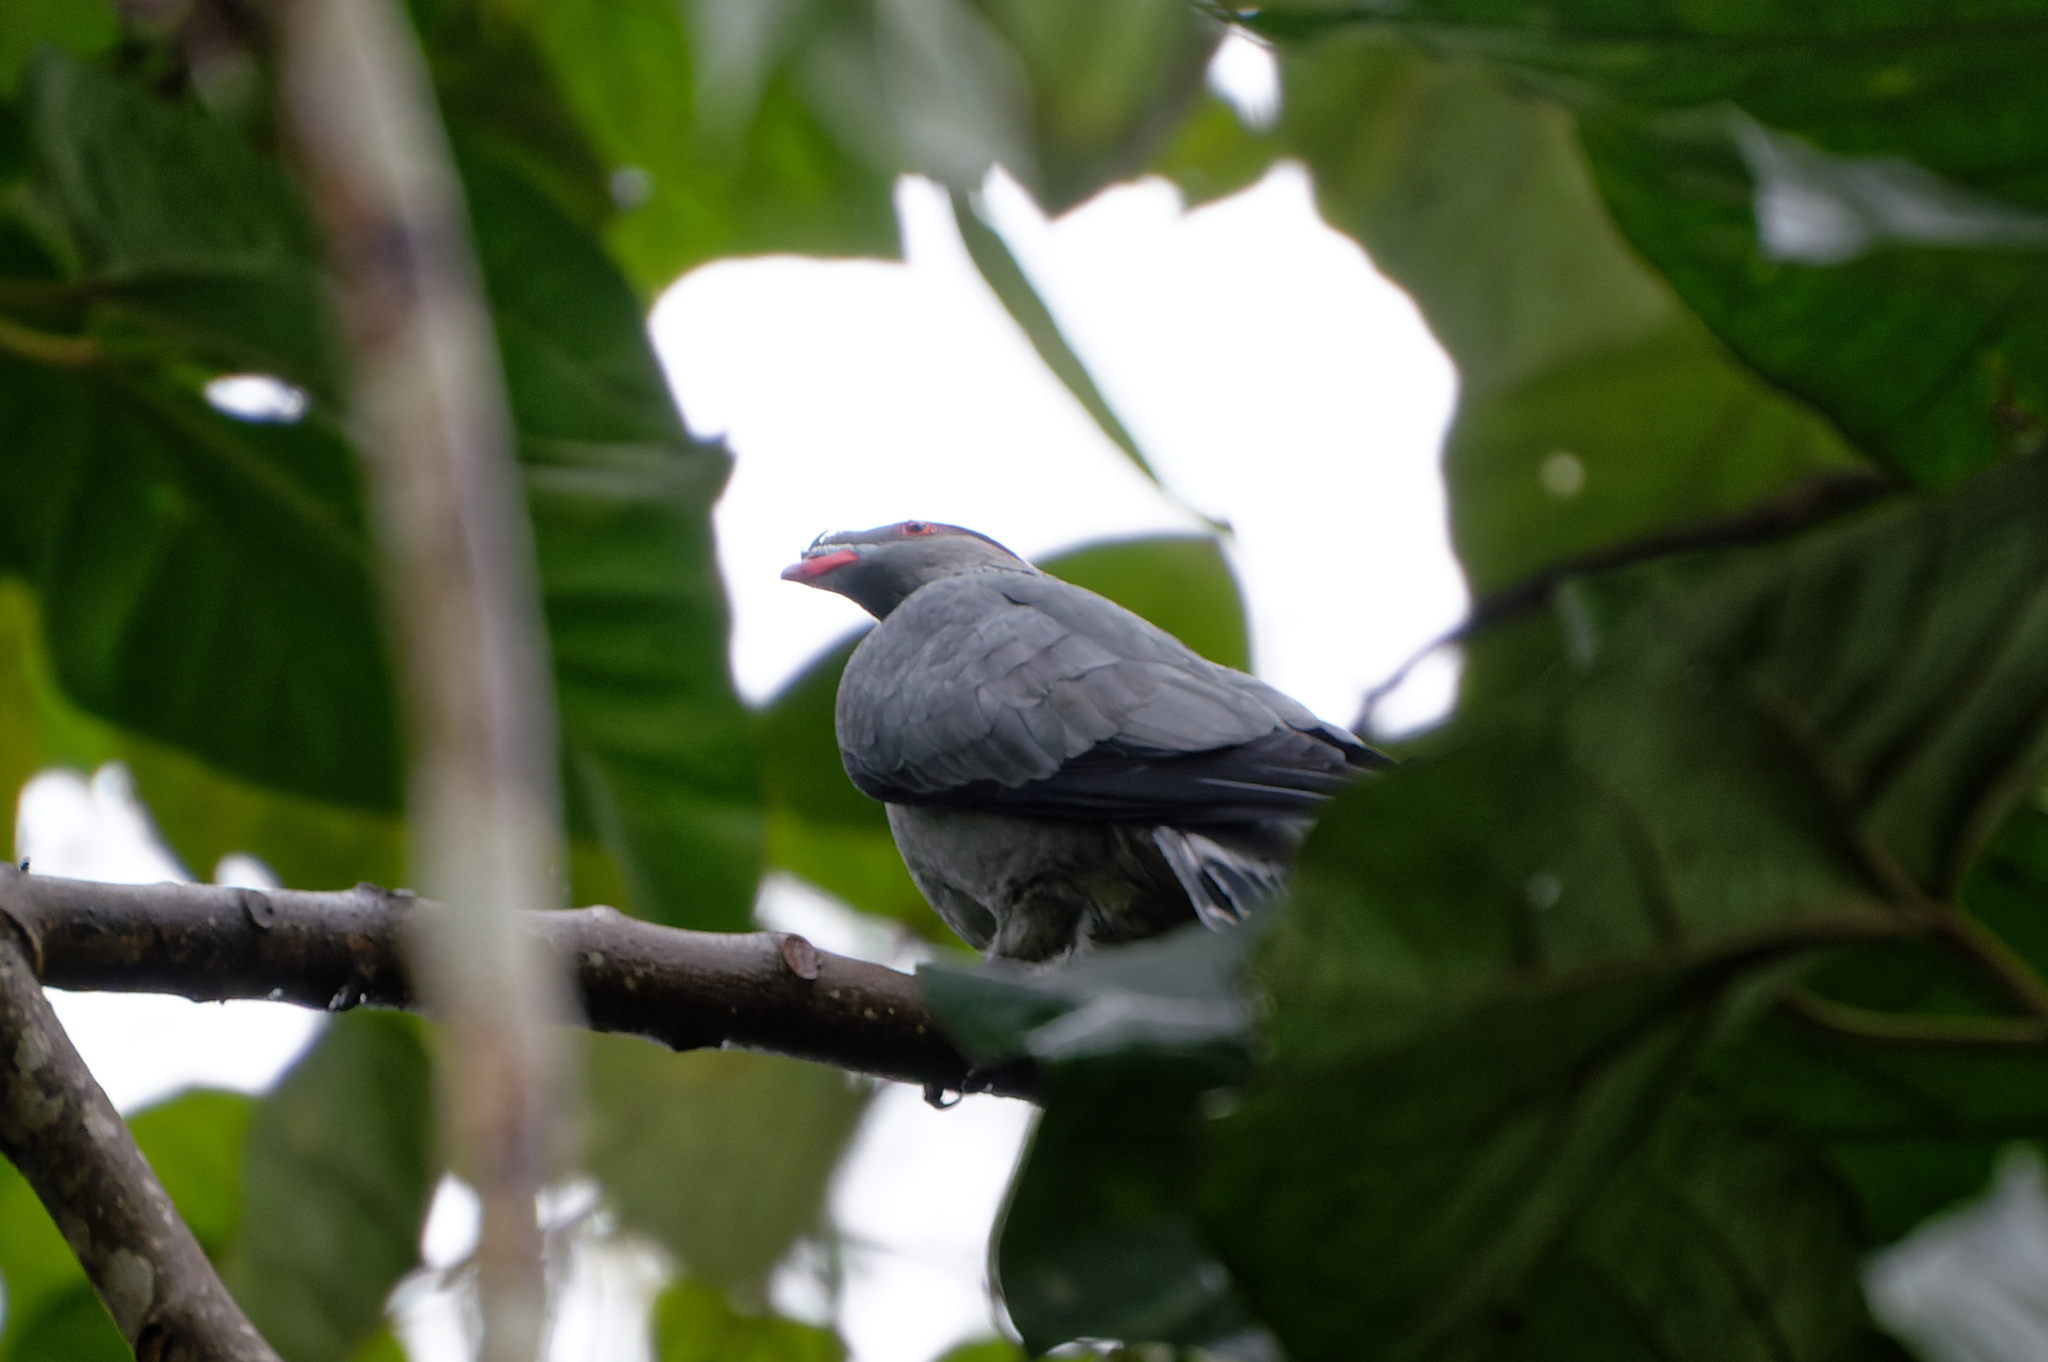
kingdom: Animalia
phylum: Chordata
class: Aves
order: Columbiformes
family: Columbidae
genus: Lopholaimus
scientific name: Lopholaimus antarcticus
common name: Topknot pigeon
